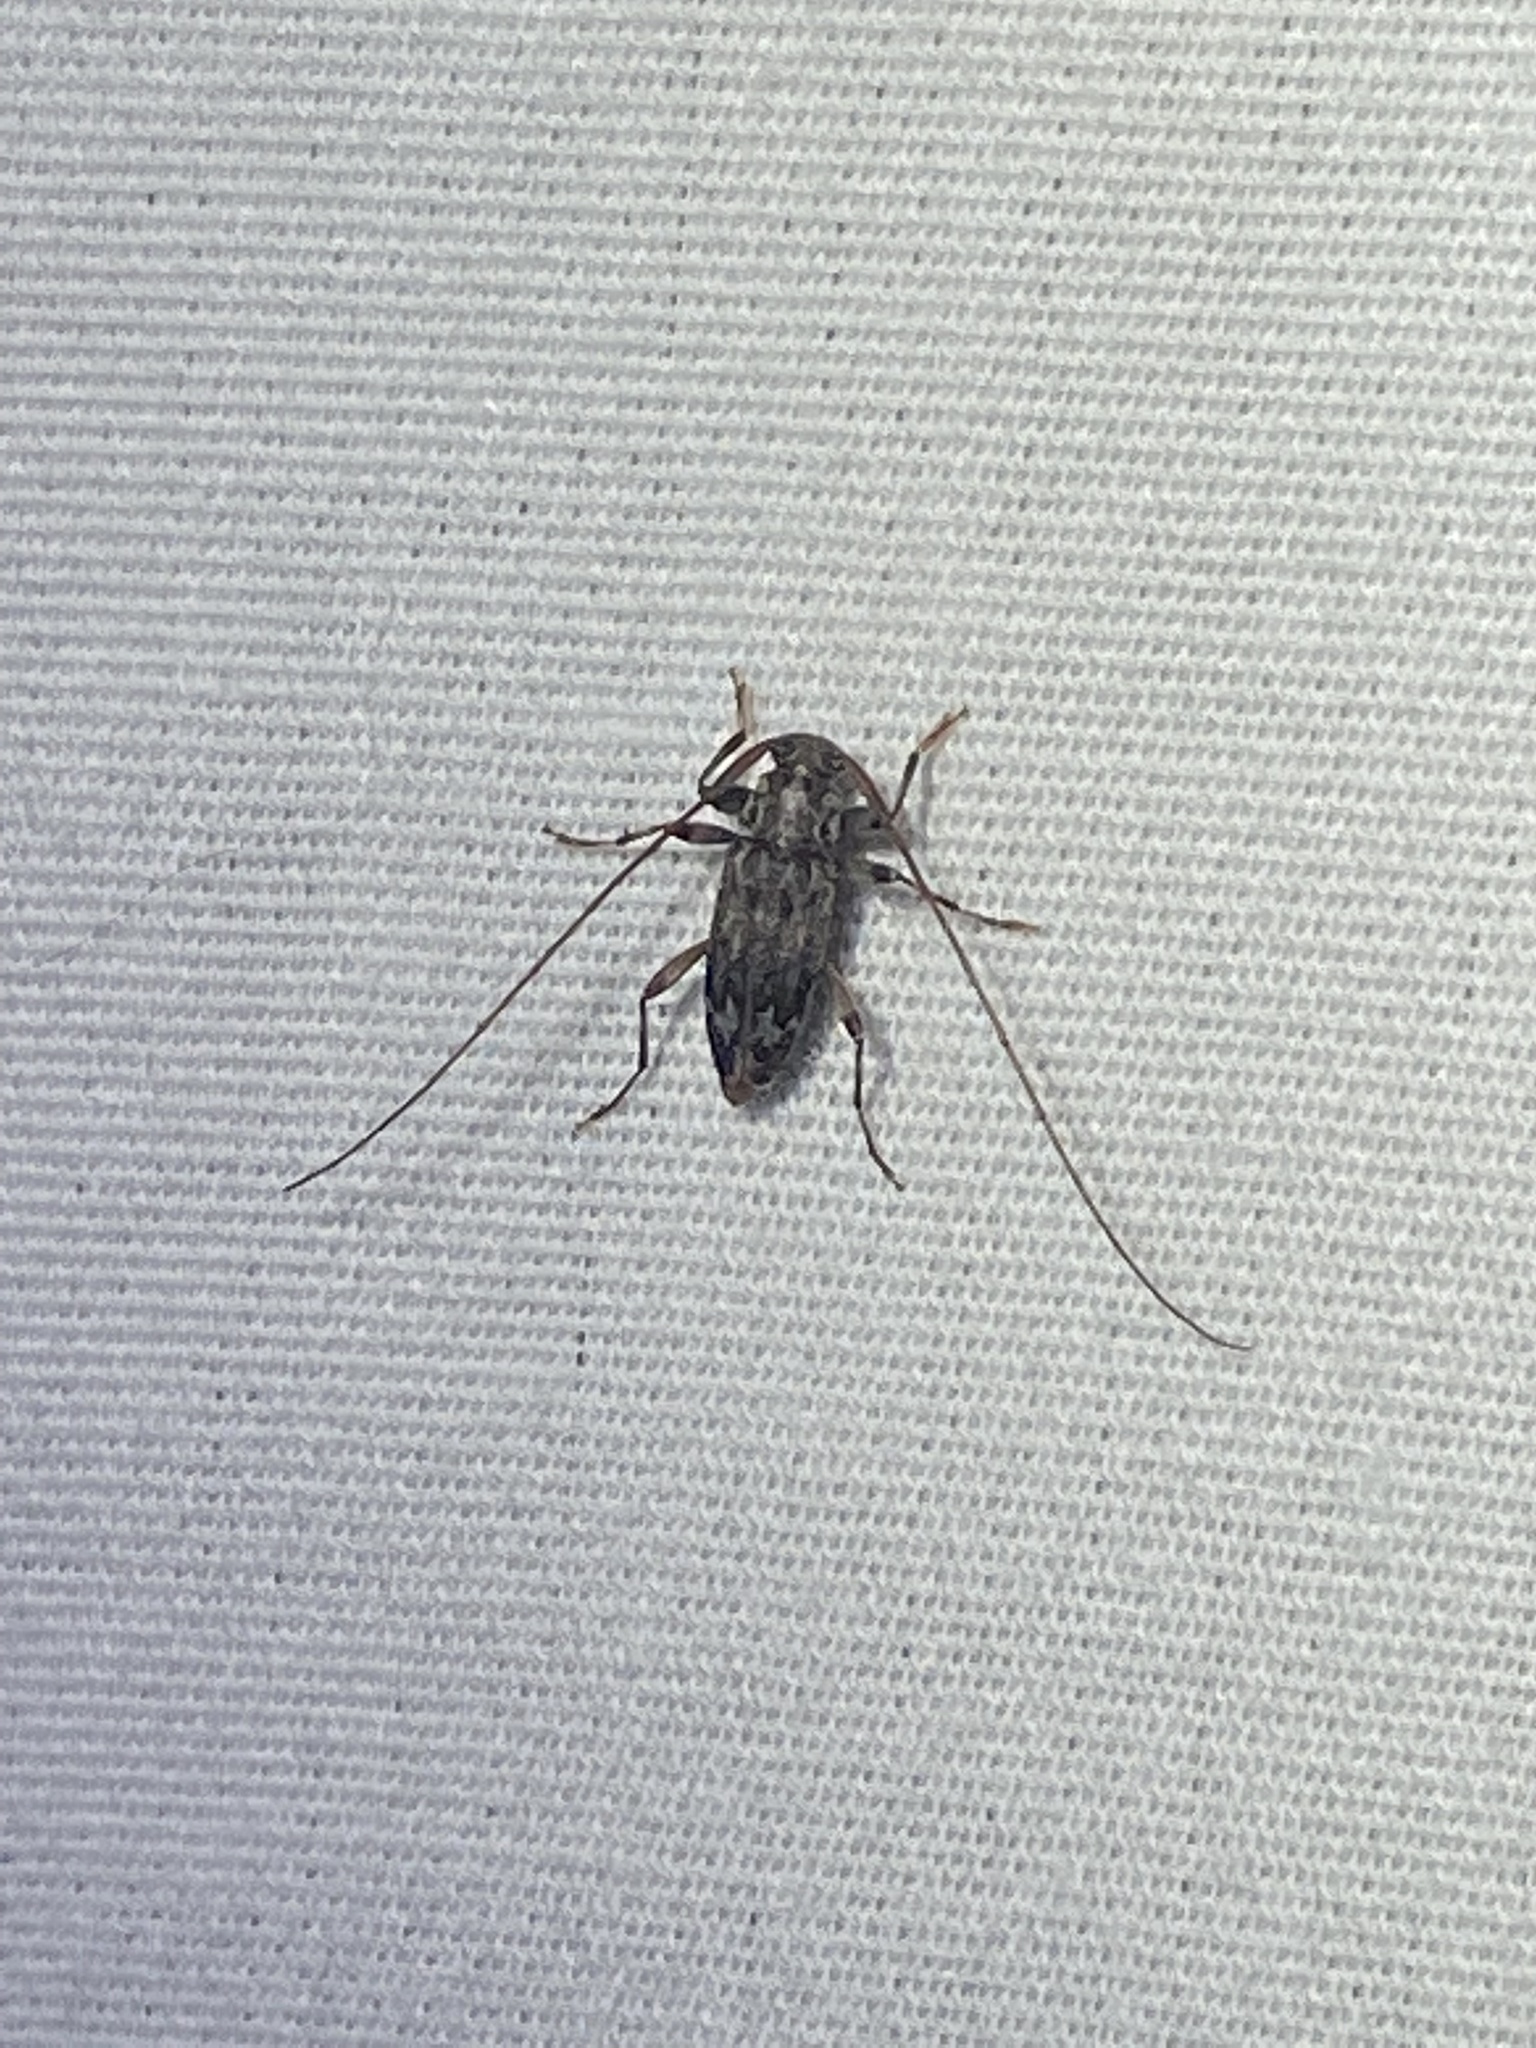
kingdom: Animalia
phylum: Arthropoda
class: Insecta
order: Coleoptera
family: Cerambycidae
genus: Lepturges
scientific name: Lepturges confluens
